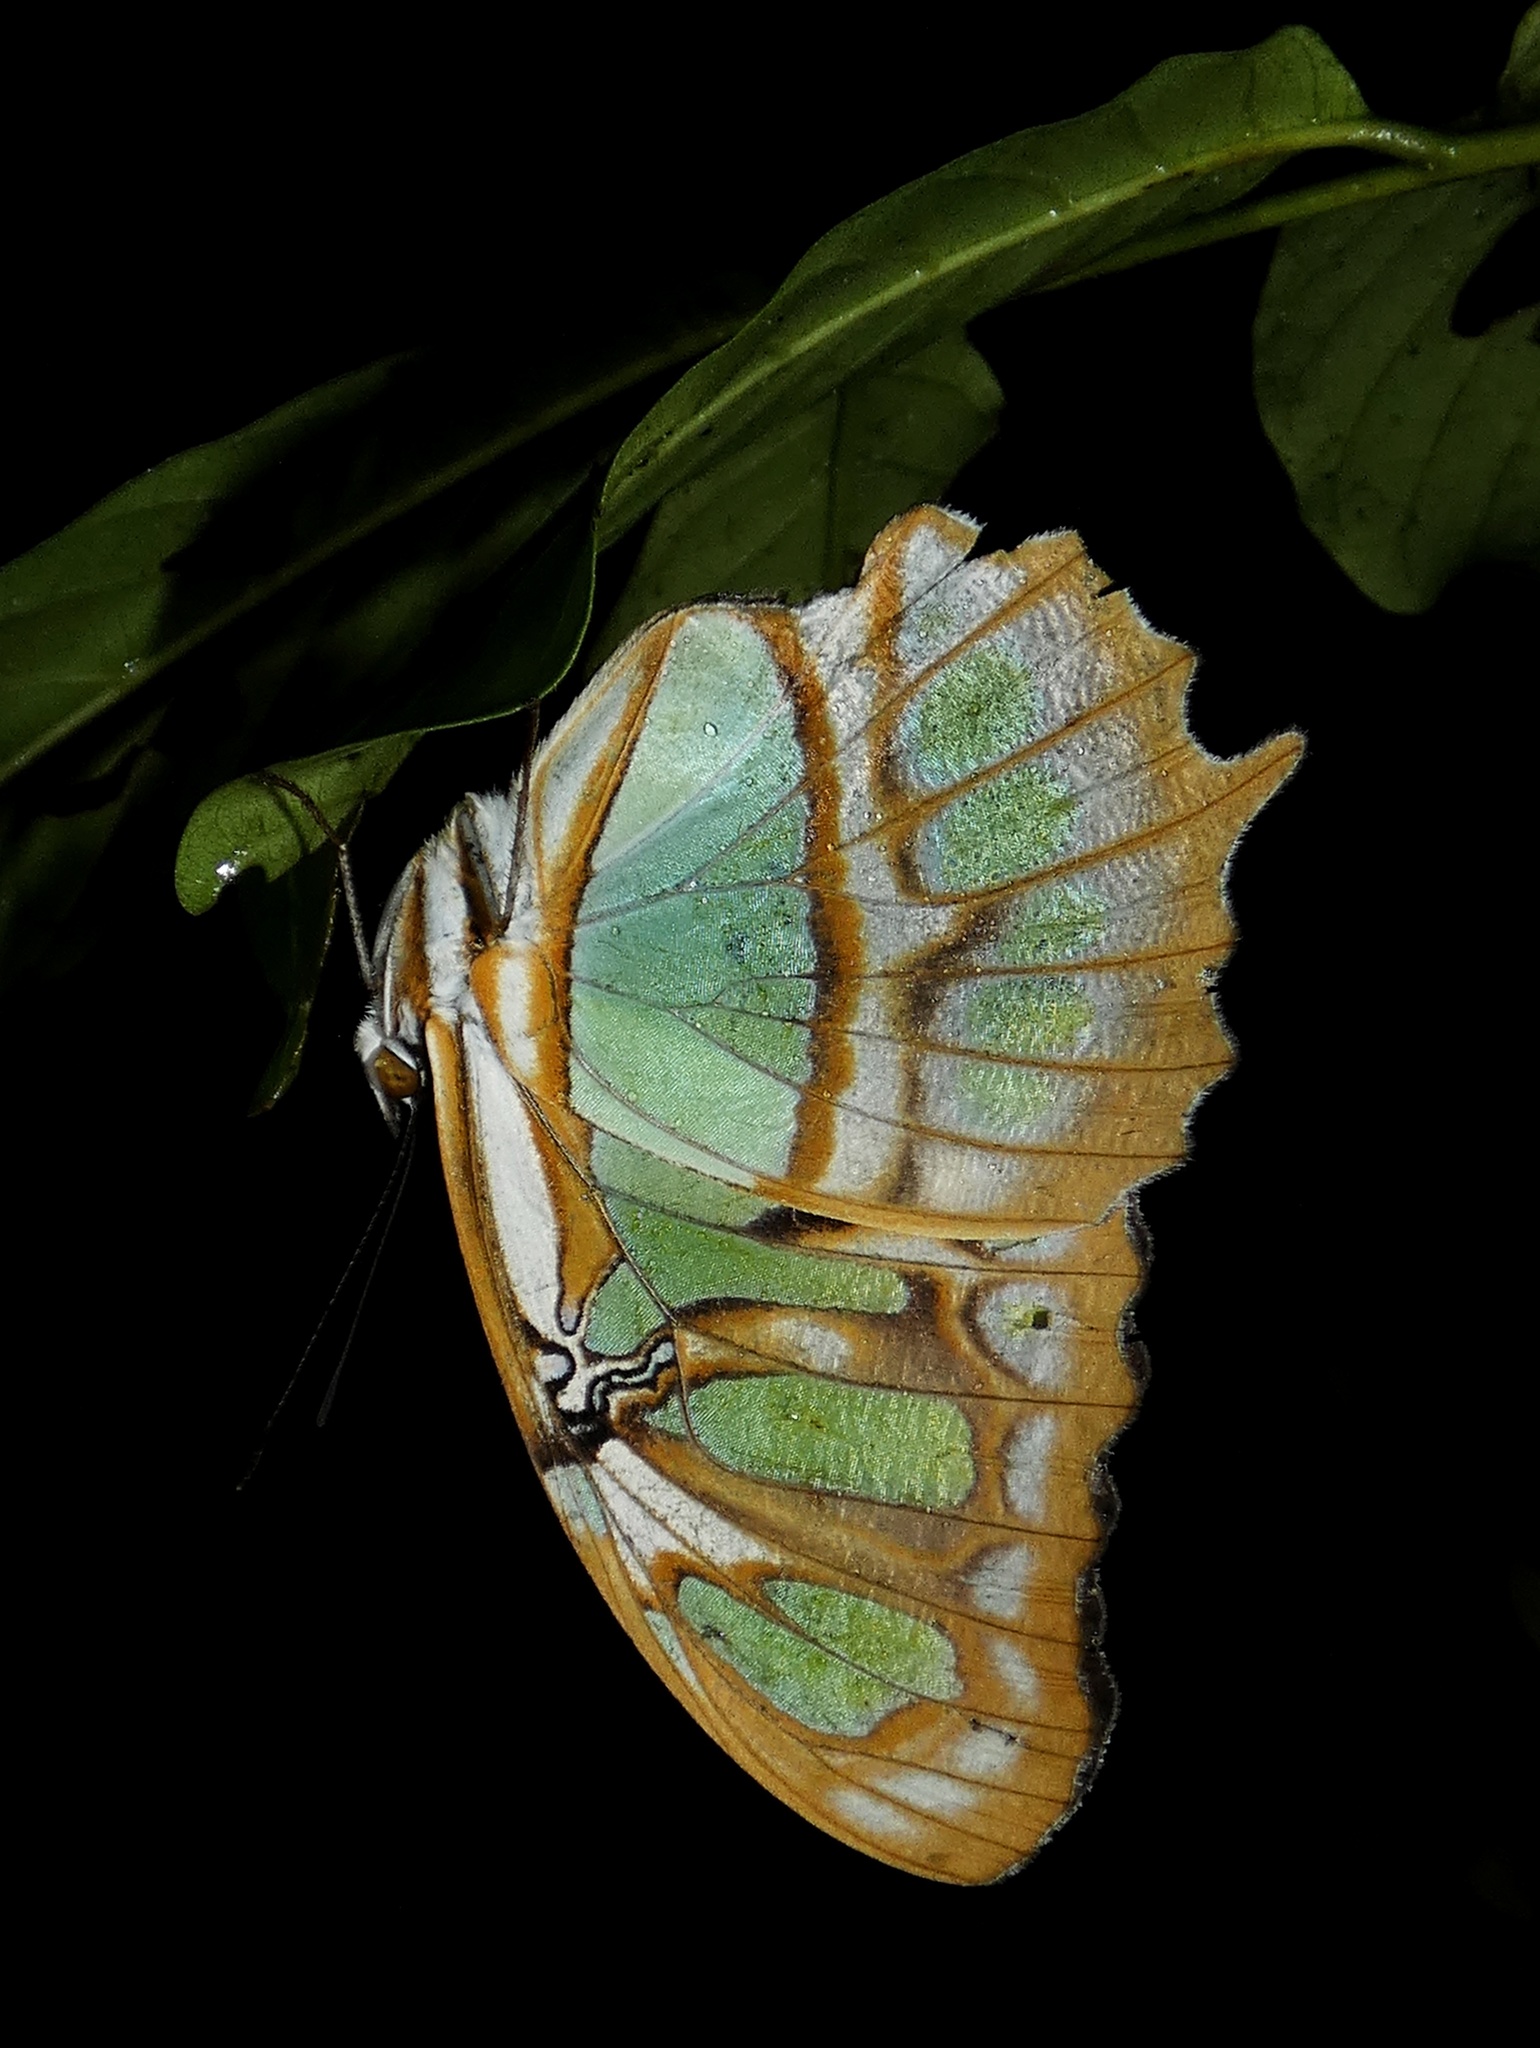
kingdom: Animalia
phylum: Arthropoda
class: Insecta
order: Lepidoptera
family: Nymphalidae
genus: Siproeta
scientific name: Siproeta stelenes
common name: Malachite
